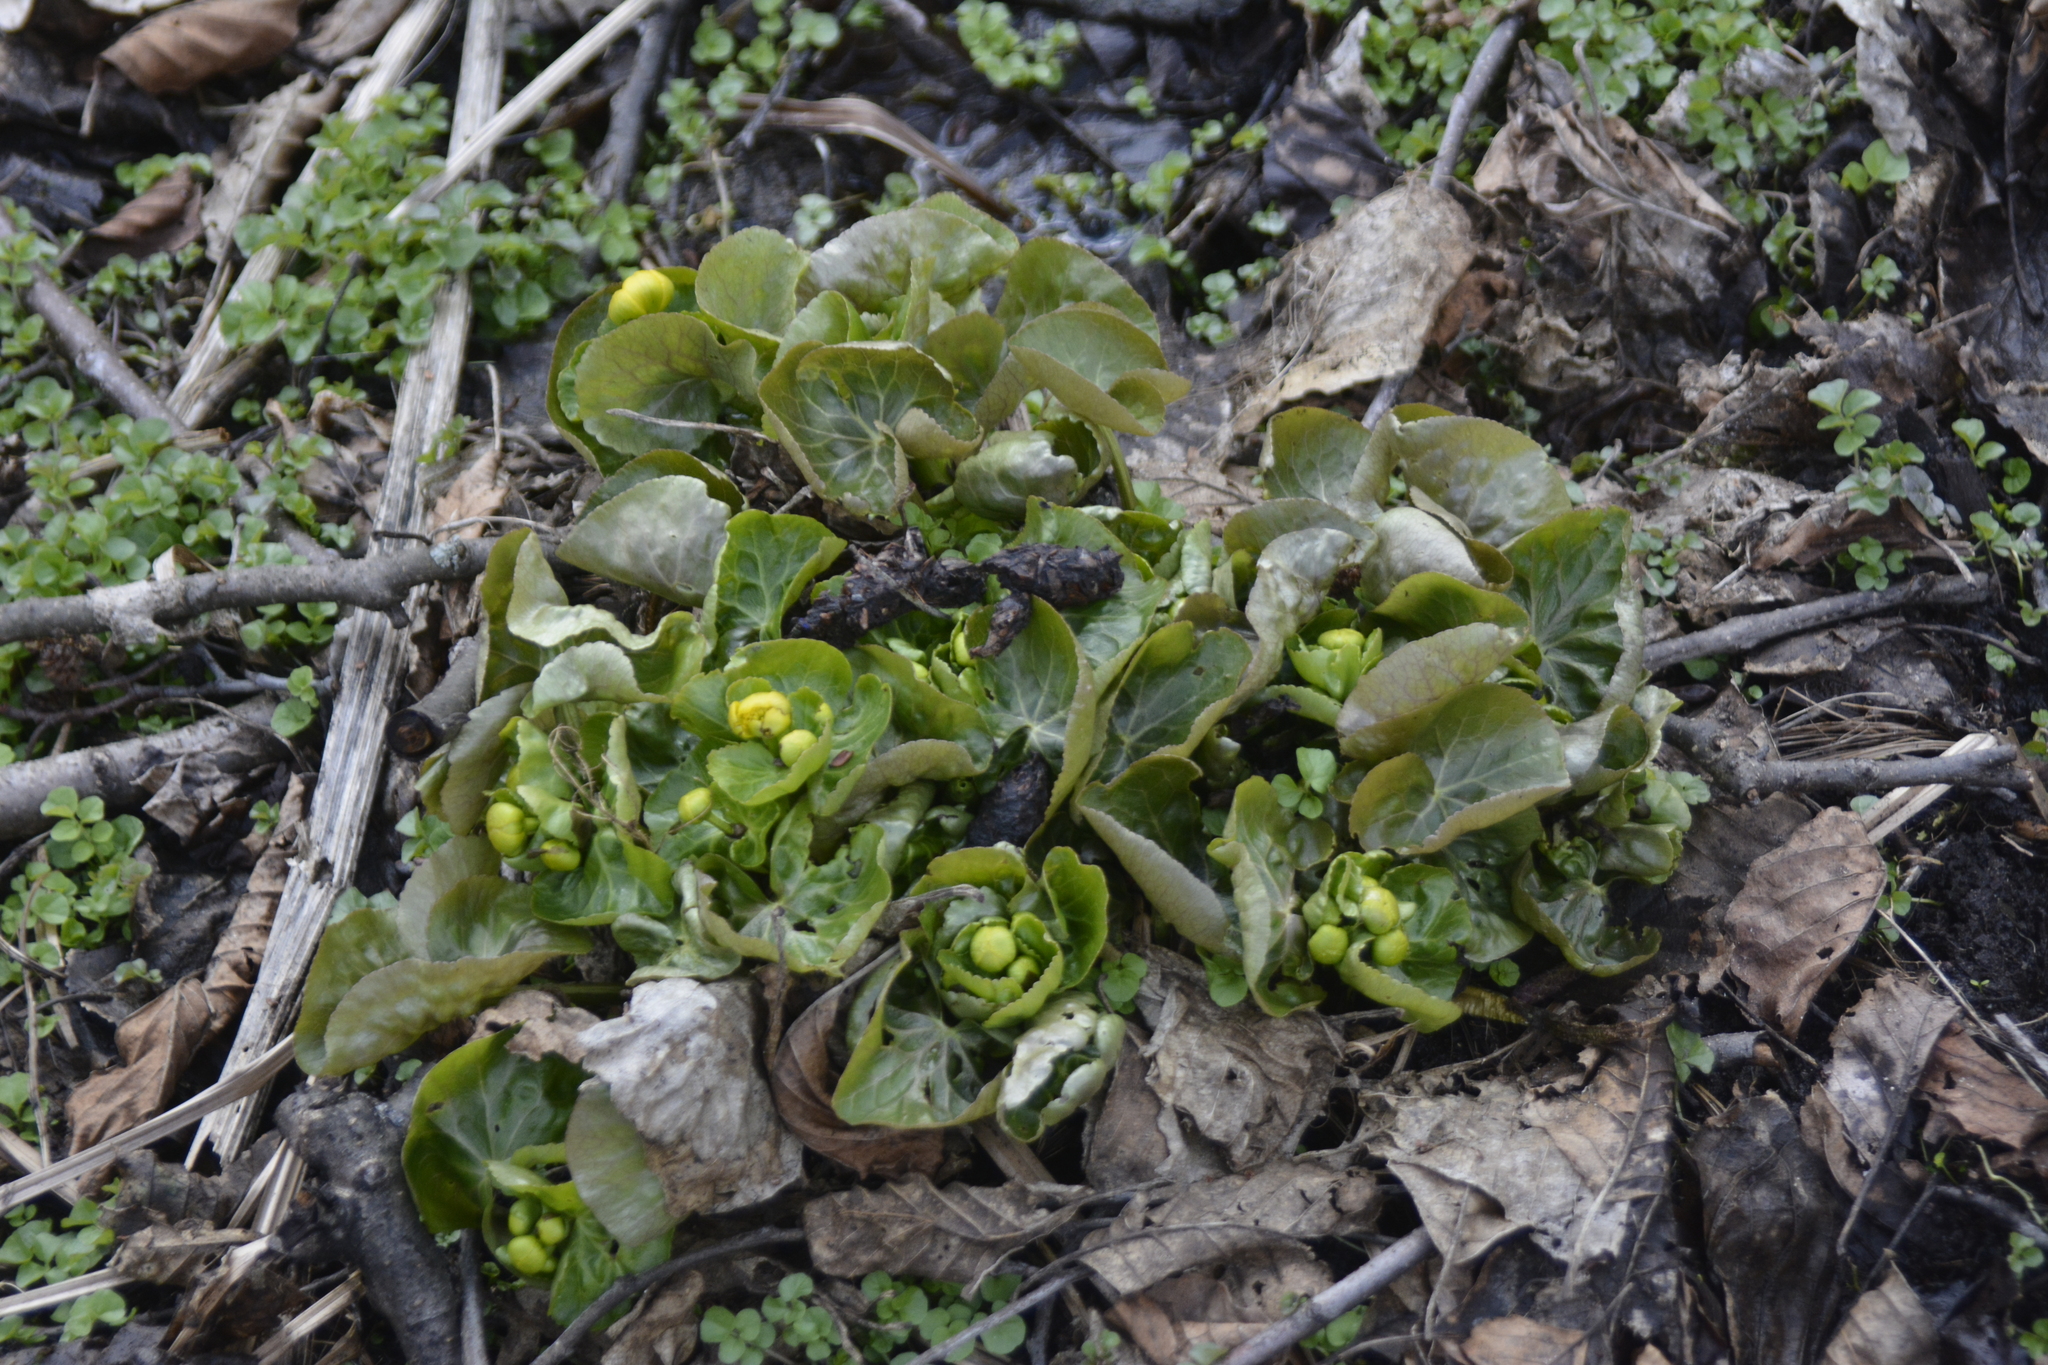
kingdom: Plantae
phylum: Tracheophyta
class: Magnoliopsida
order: Ranunculales
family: Ranunculaceae
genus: Caltha
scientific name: Caltha palustris
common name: Marsh marigold
